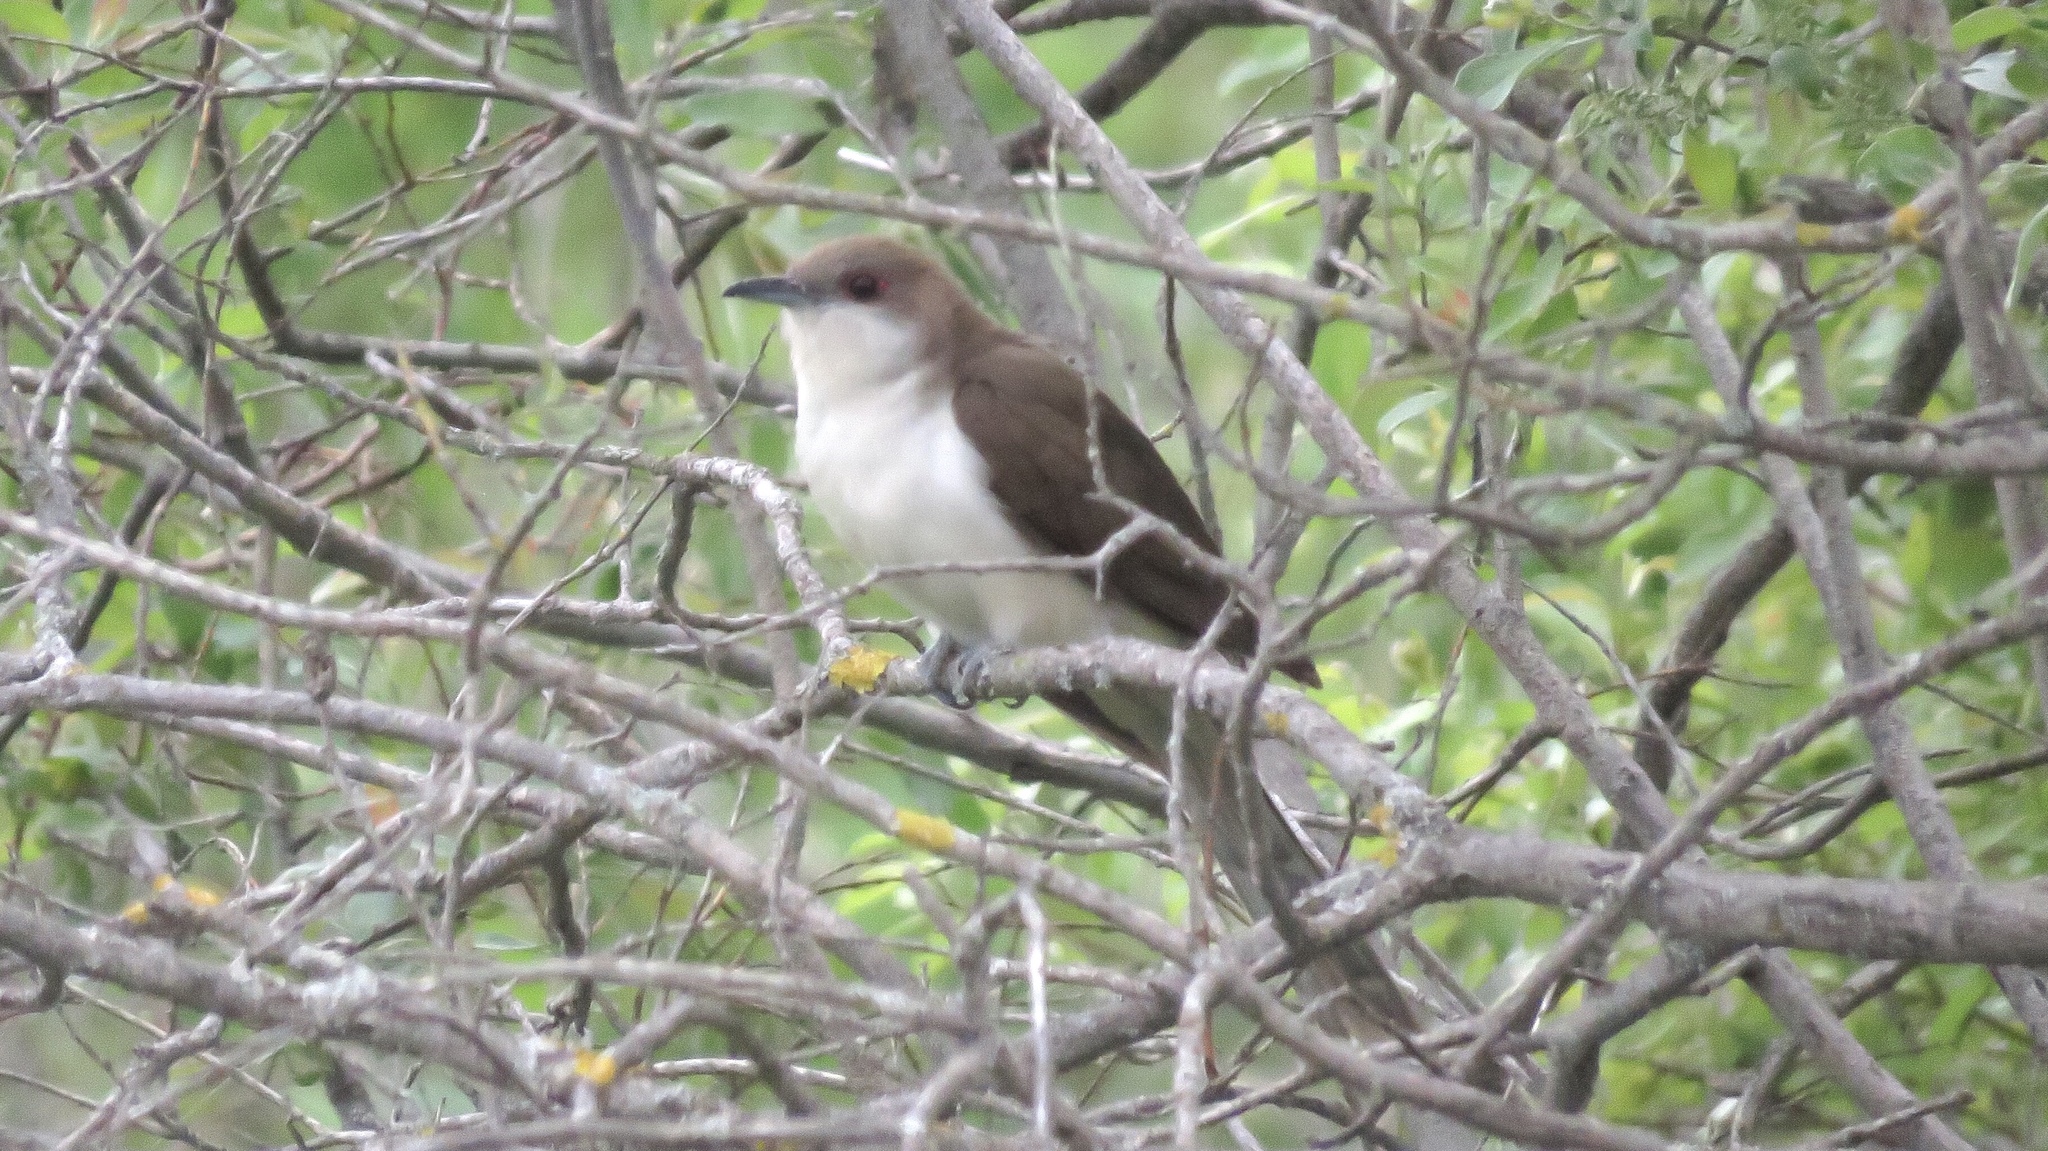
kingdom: Animalia
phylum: Chordata
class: Aves
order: Cuculiformes
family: Cuculidae
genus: Coccyzus
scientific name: Coccyzus erythropthalmus
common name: Black-billed cuckoo
